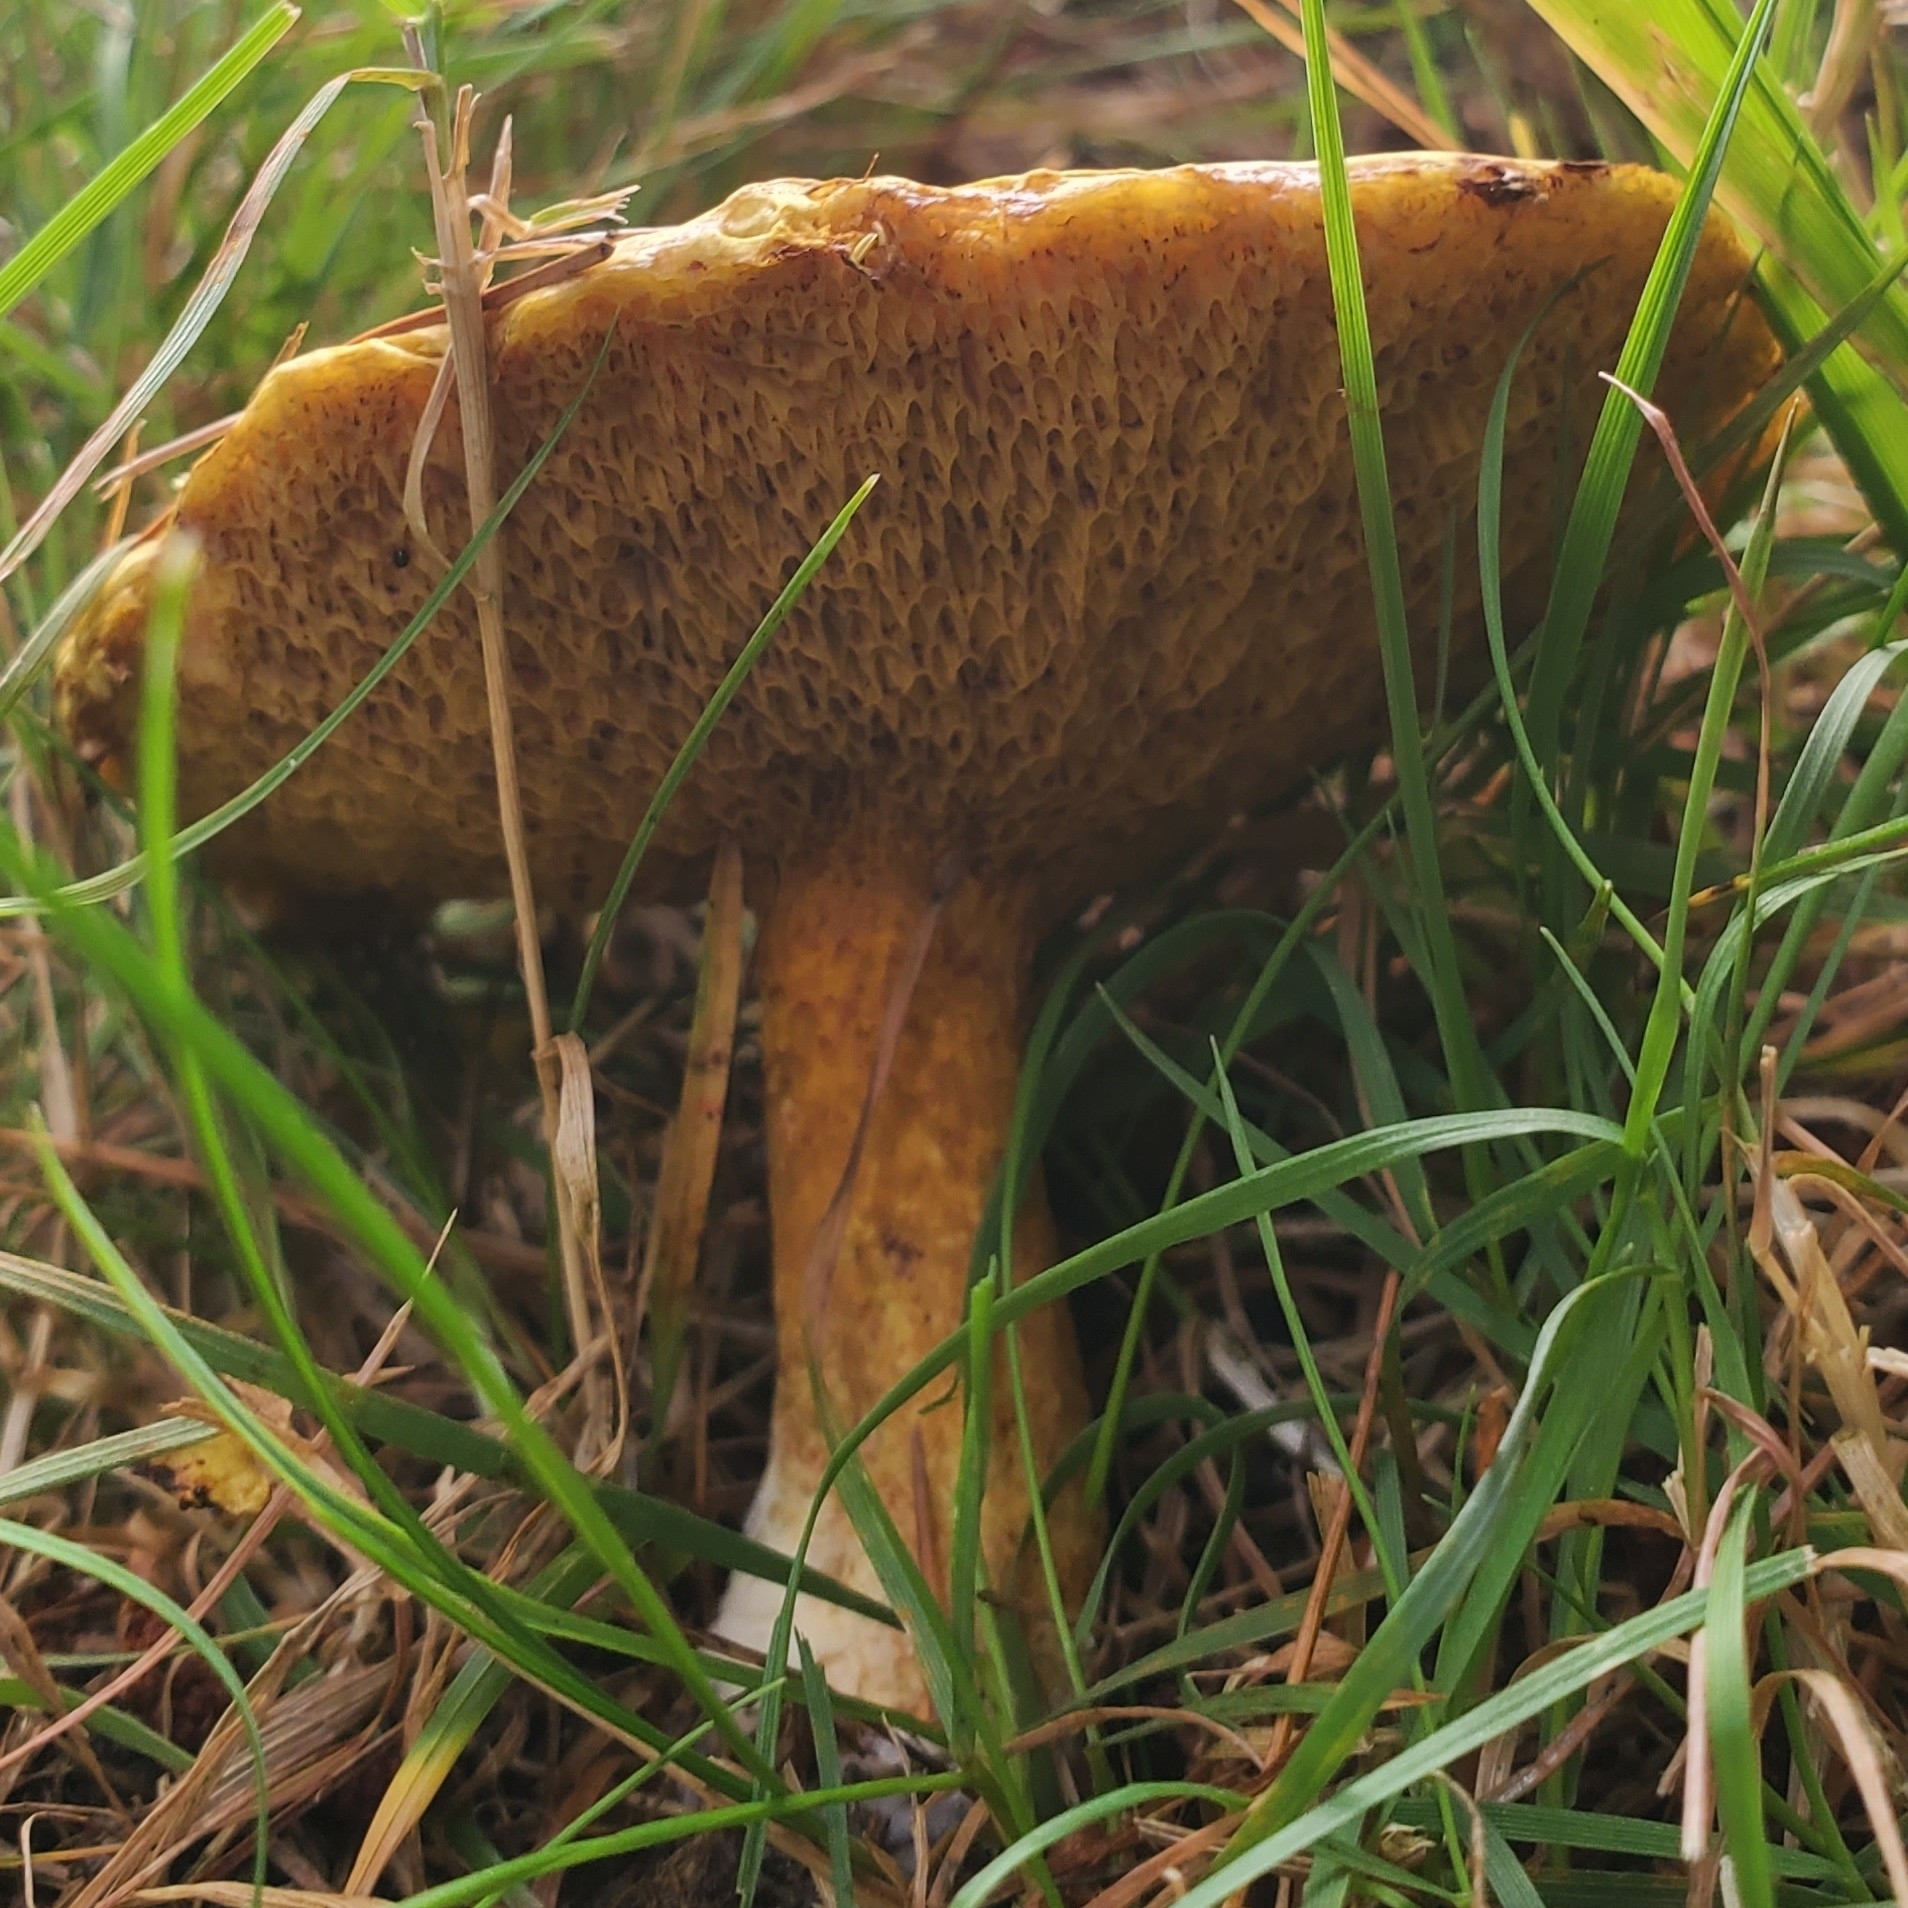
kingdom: Fungi
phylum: Basidiomycota
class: Agaricomycetes
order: Boletales
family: Suillaceae
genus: Suillus
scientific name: Suillus americanus
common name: Chicken fat mushroom
